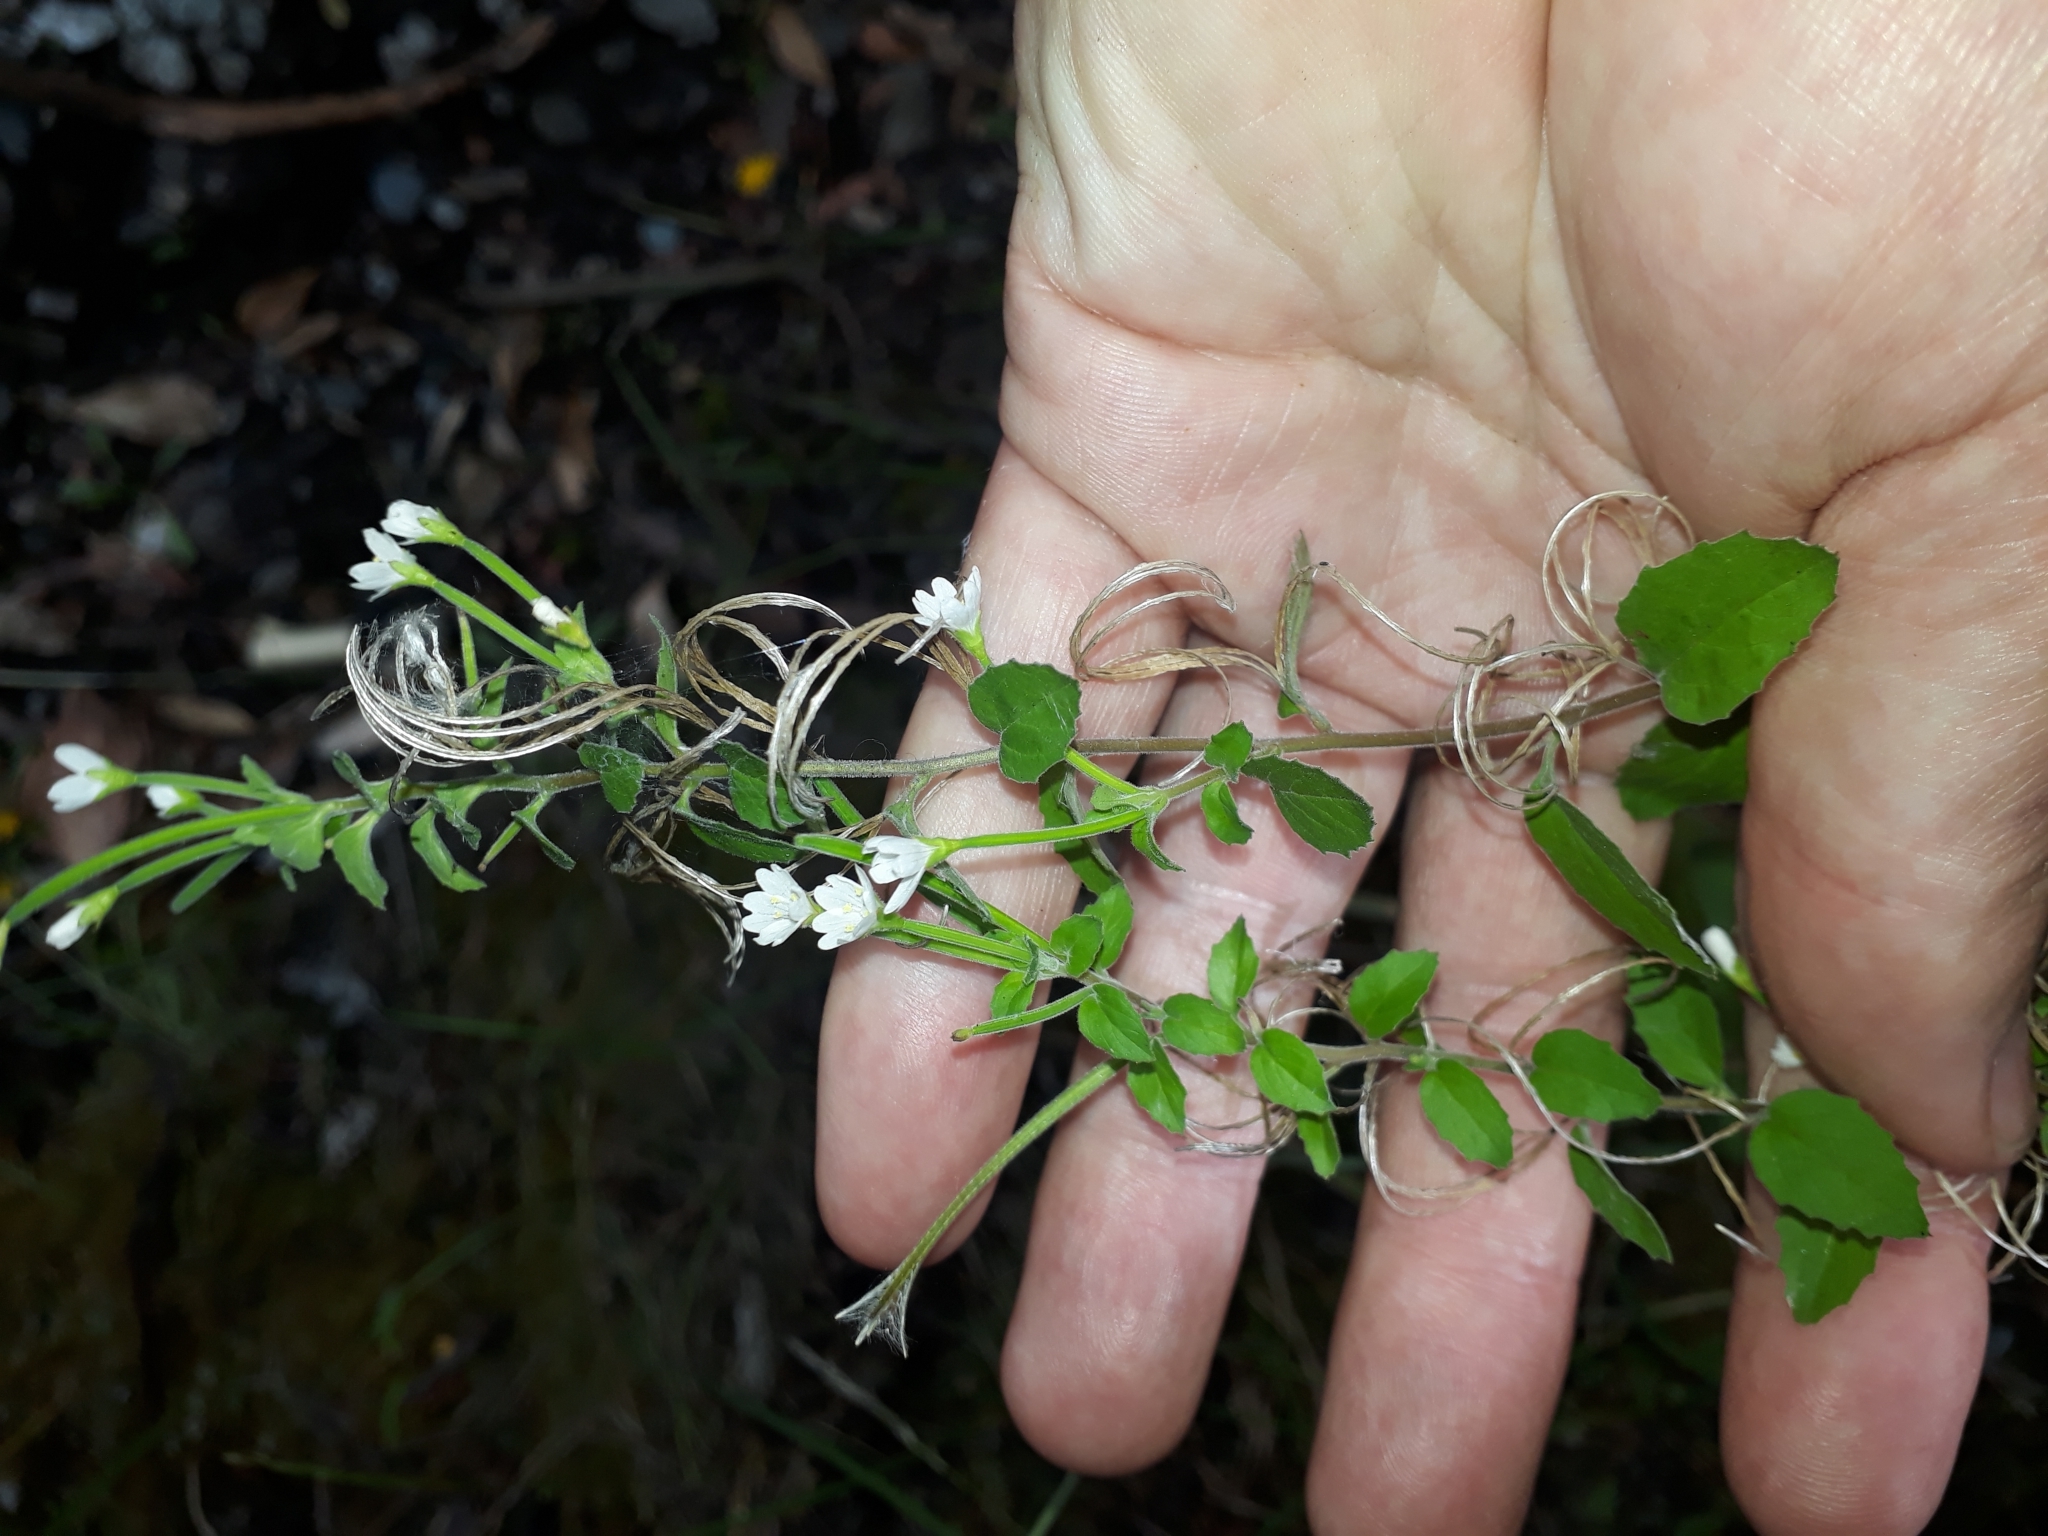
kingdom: Plantae
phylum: Tracheophyta
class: Magnoliopsida
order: Myrtales
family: Onagraceae
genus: Epilobium
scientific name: Epilobium pubens
